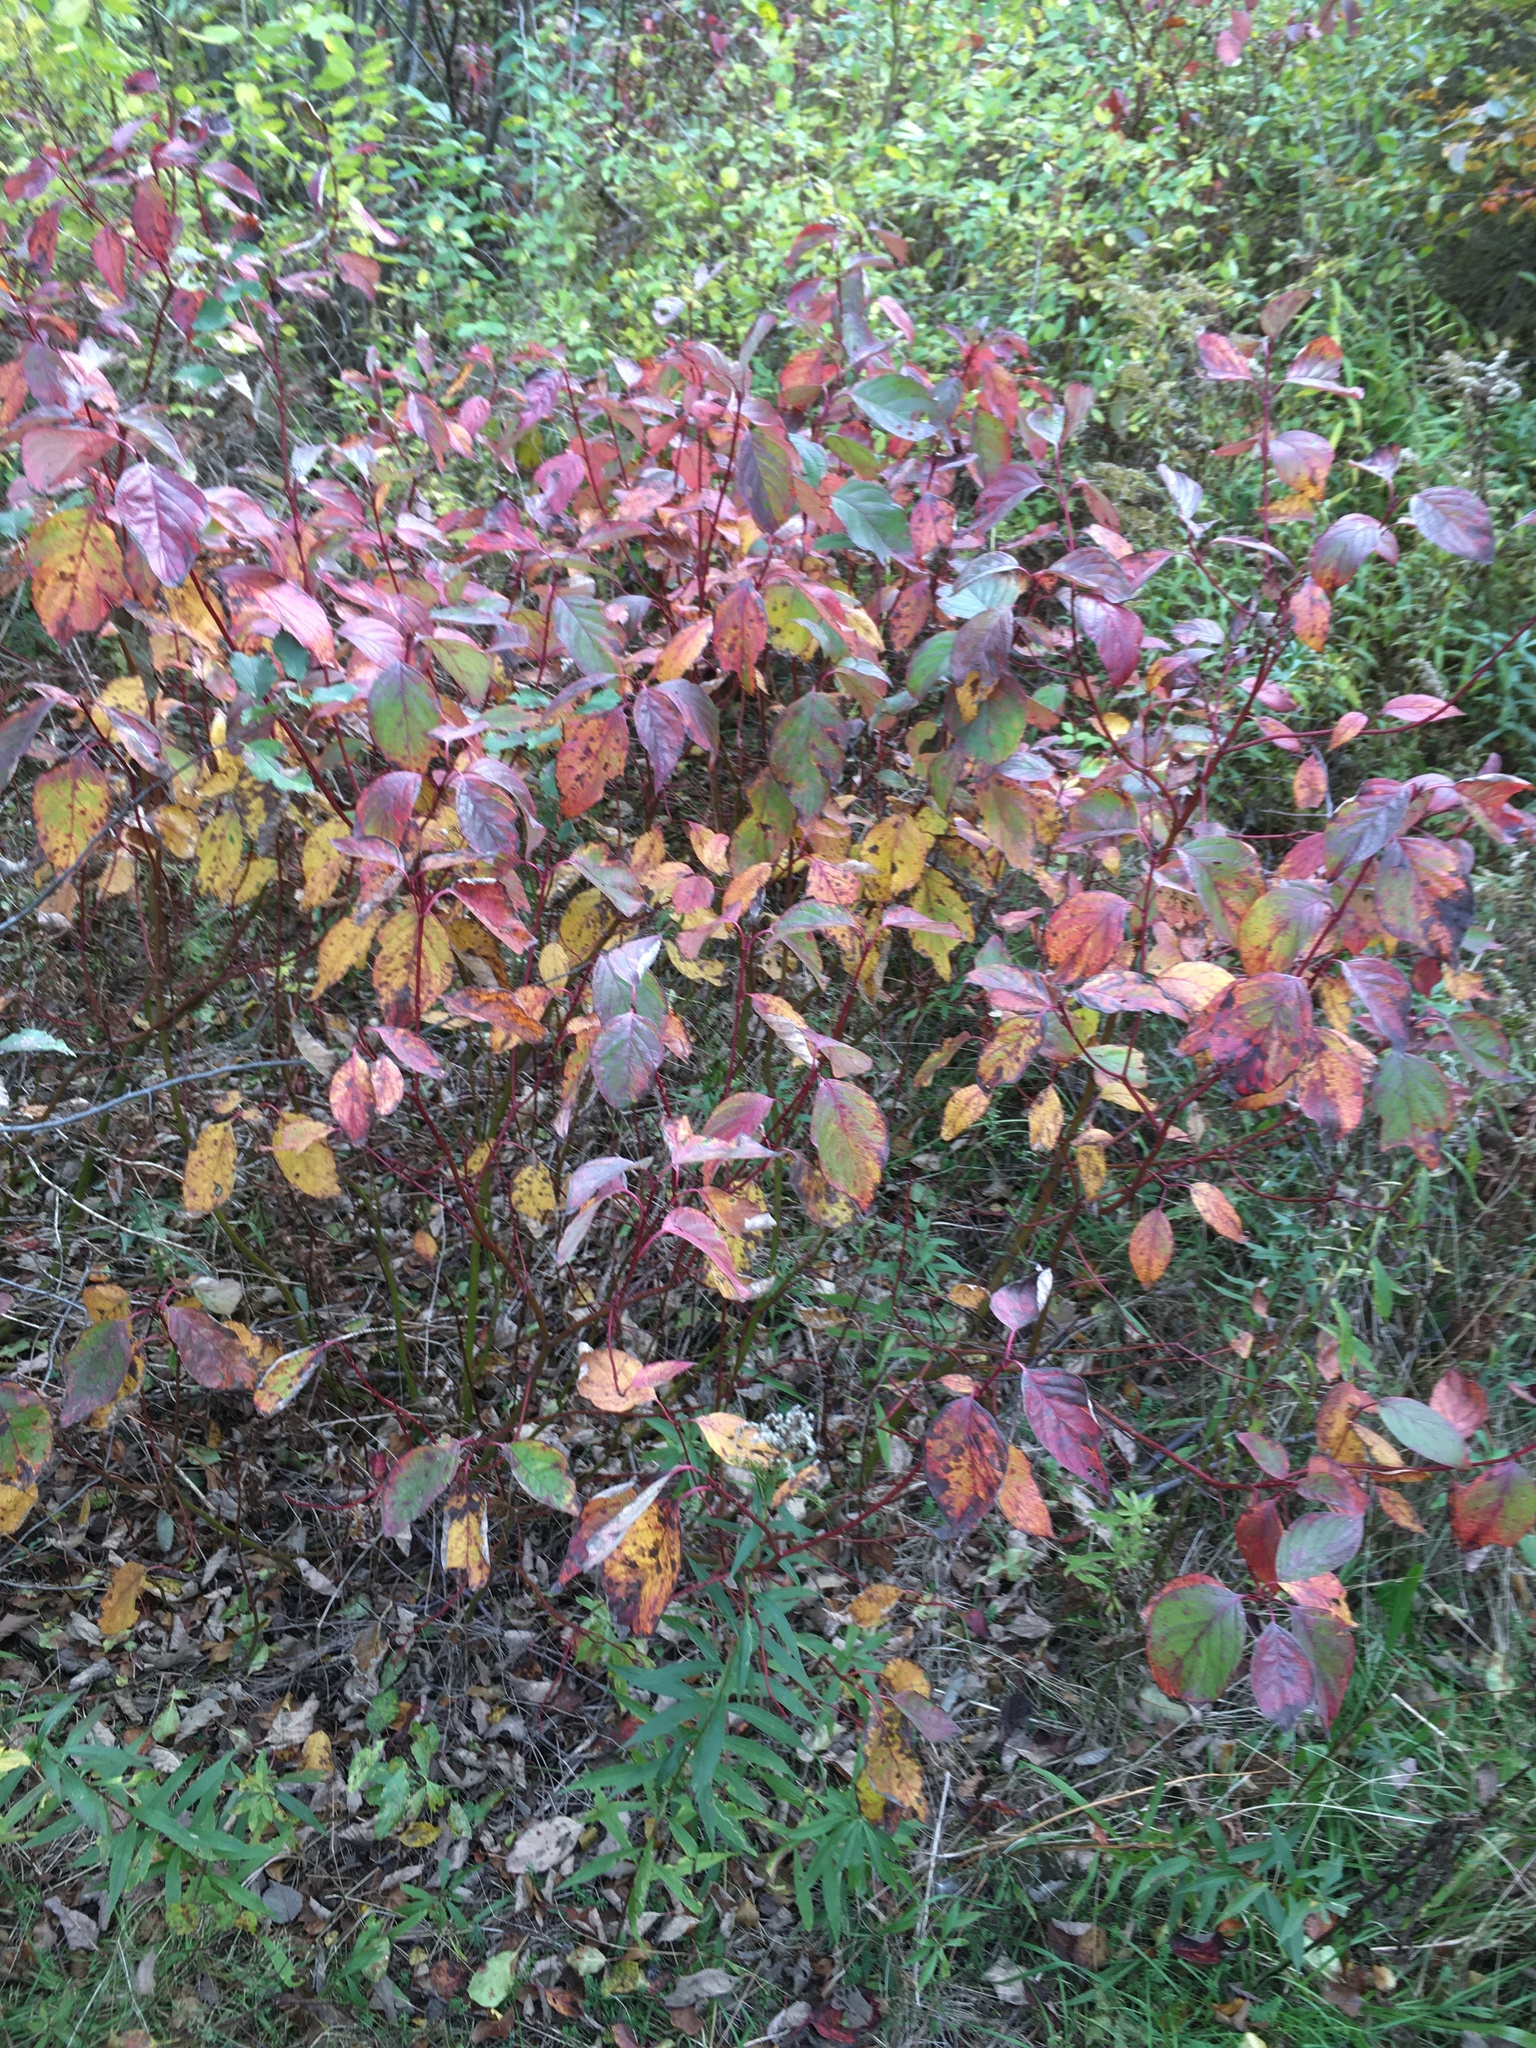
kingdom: Plantae
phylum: Tracheophyta
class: Magnoliopsida
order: Cornales
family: Cornaceae
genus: Cornus
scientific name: Cornus sericea
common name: Red-osier dogwood
